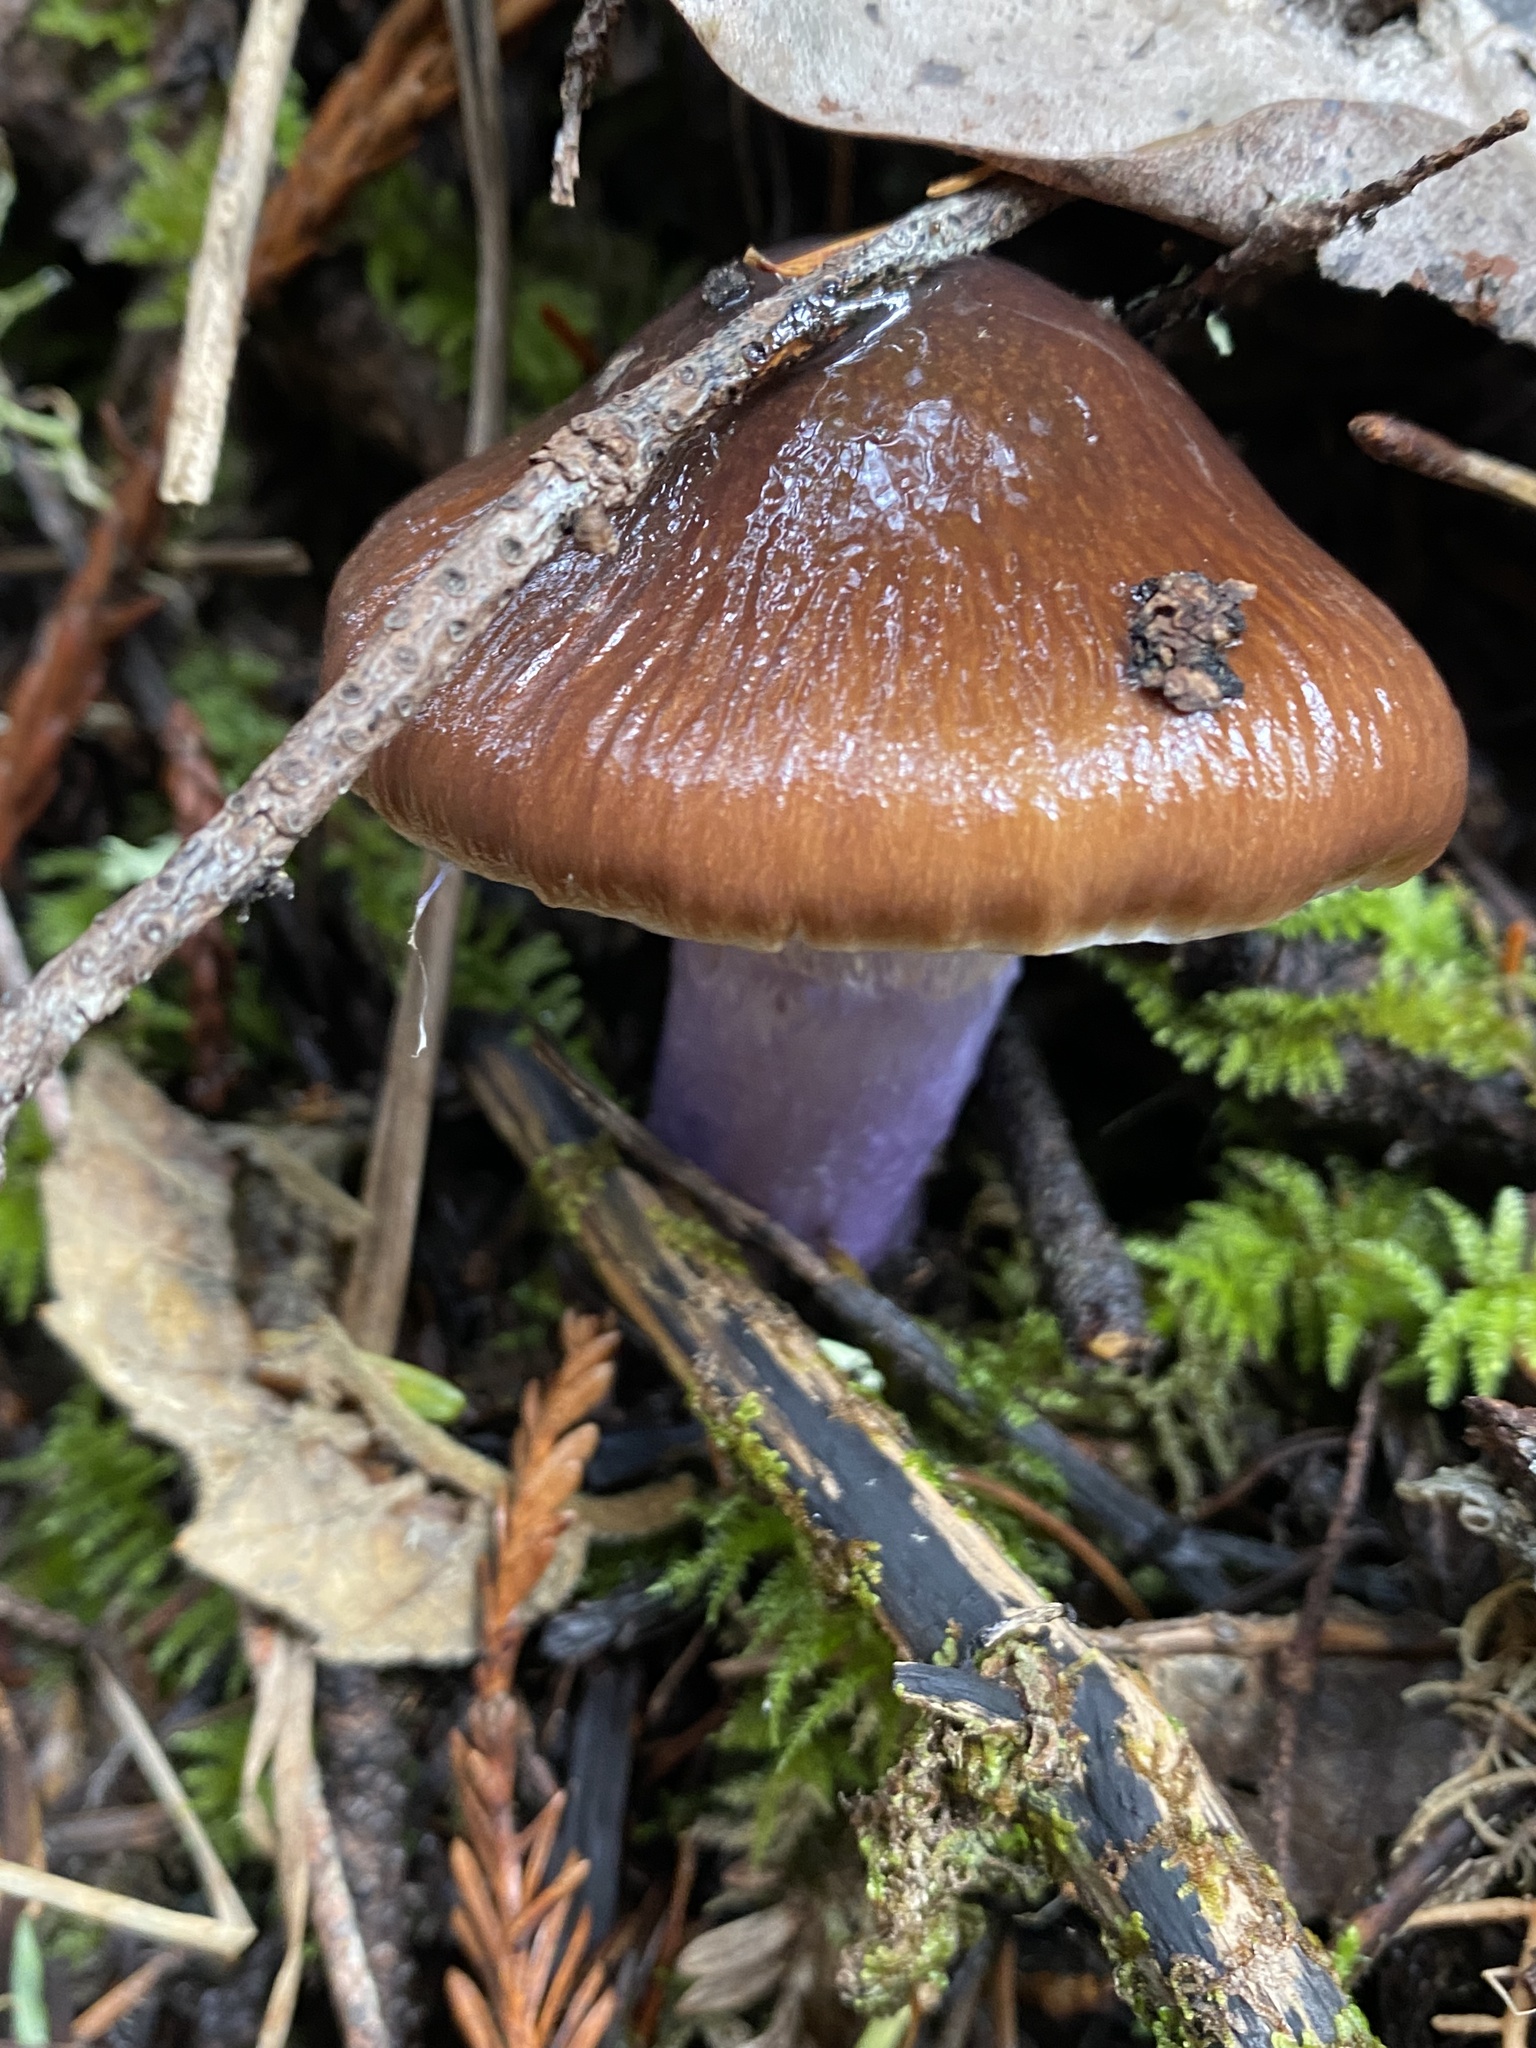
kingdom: Fungi
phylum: Basidiomycota
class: Agaricomycetes
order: Agaricales
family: Cortinariaceae
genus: Cortinarius
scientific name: Cortinarius vanduzerensis
